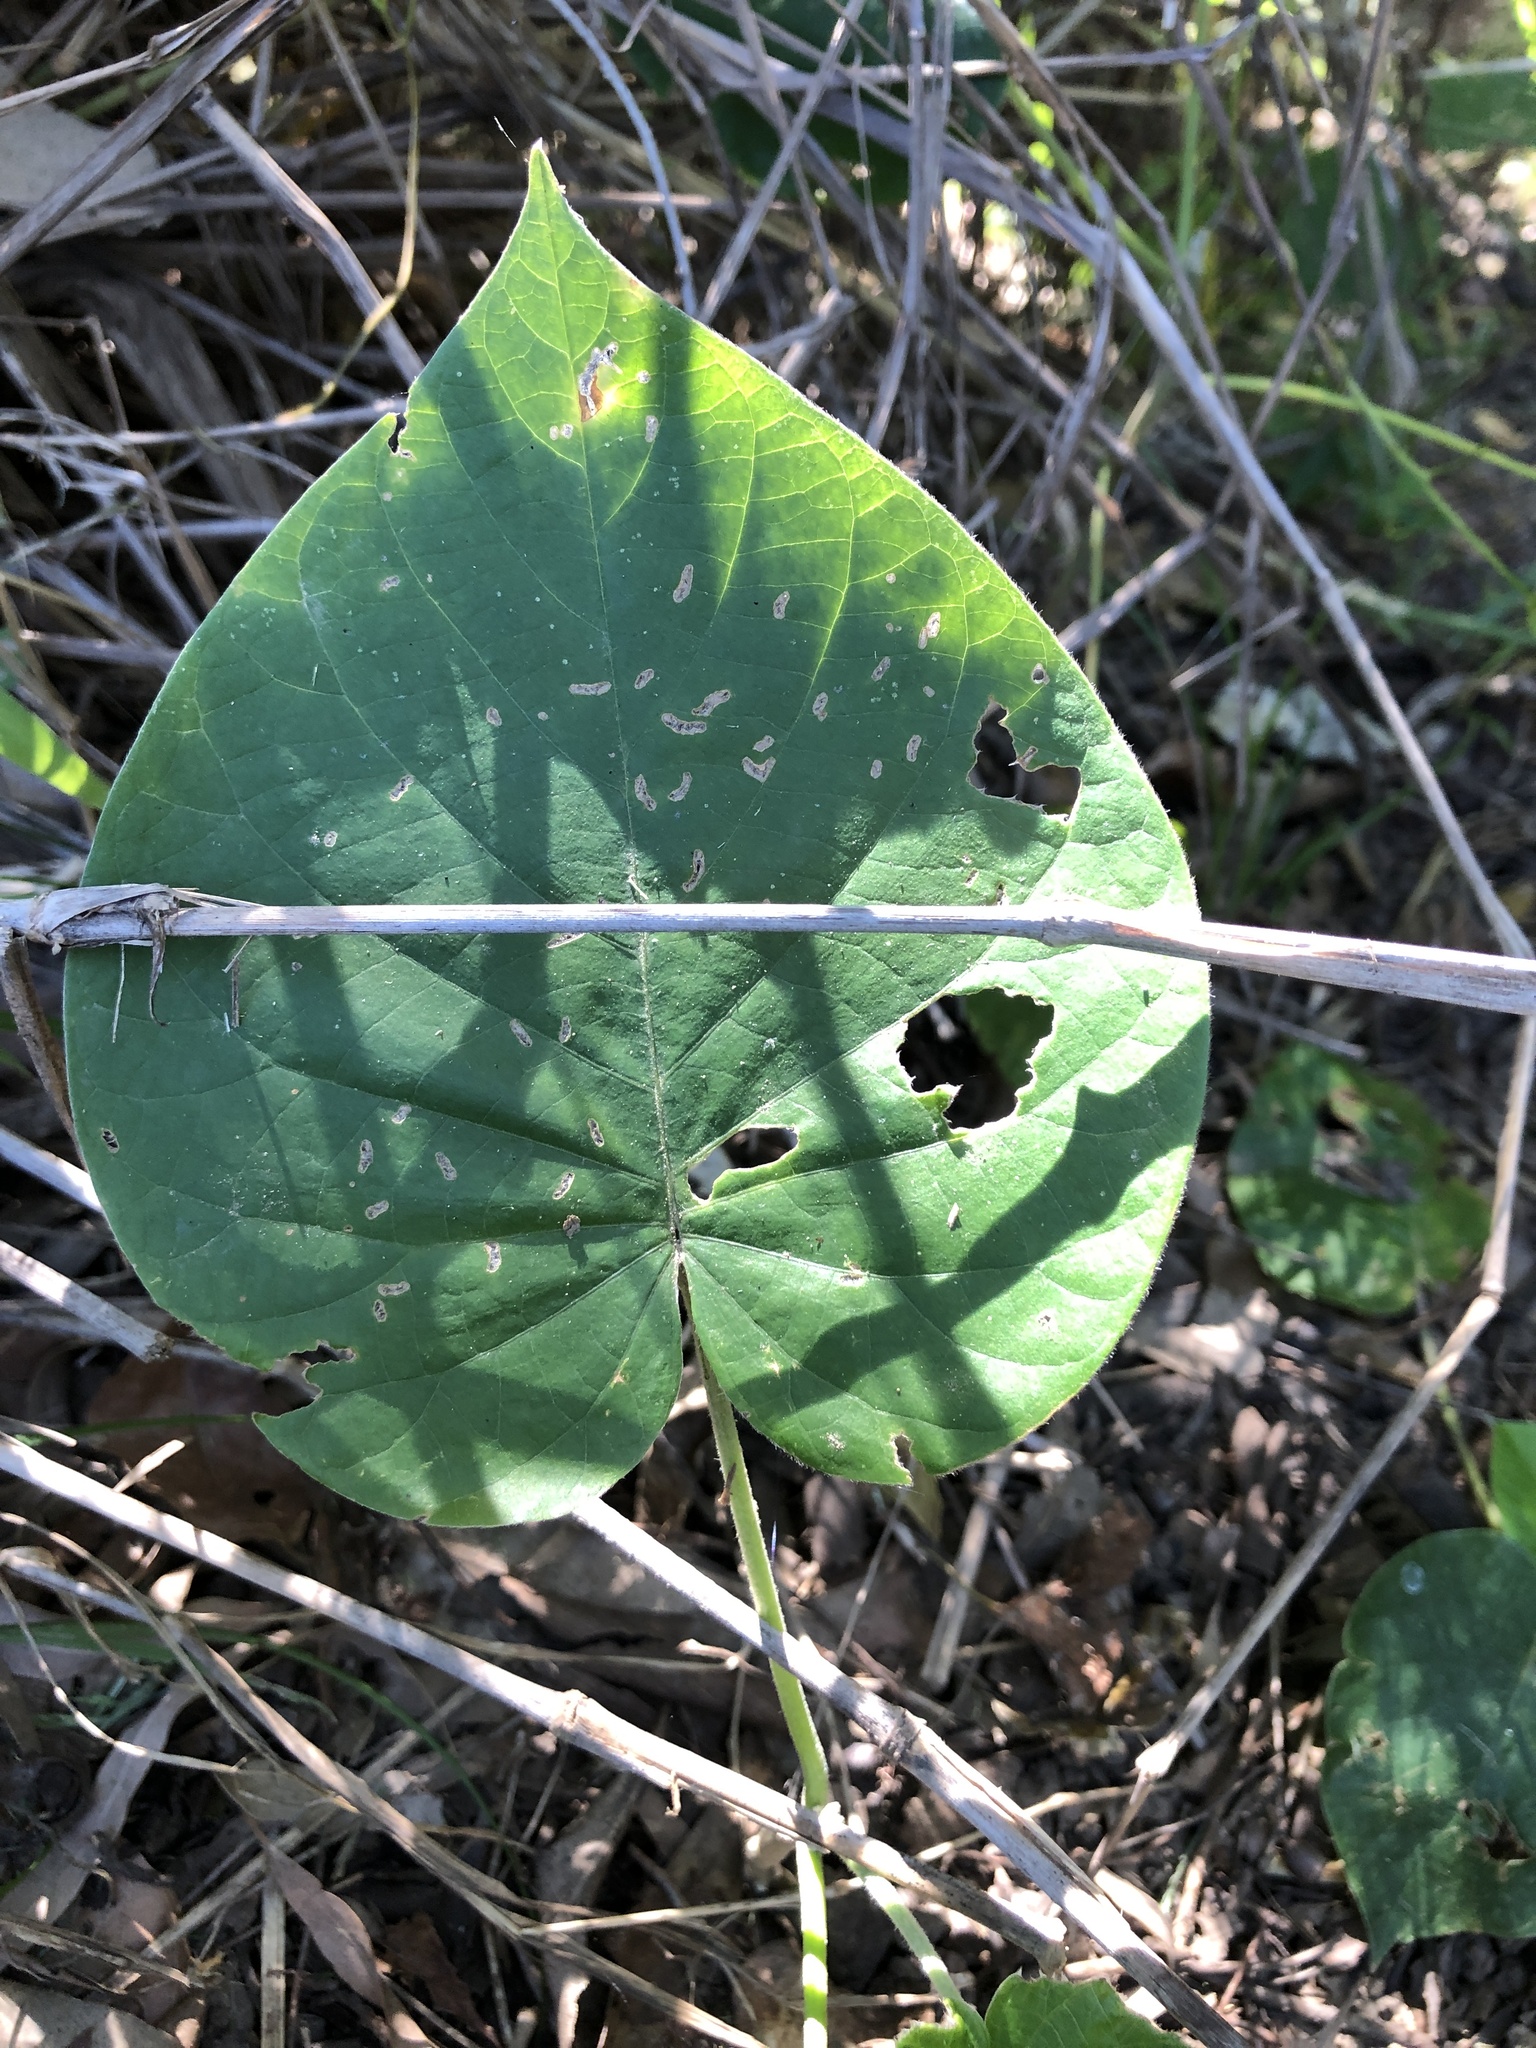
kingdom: Plantae
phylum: Tracheophyta
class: Magnoliopsida
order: Solanales
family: Convolvulaceae
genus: Argyreia
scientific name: Argyreia nervosa
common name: Elephant creeper
